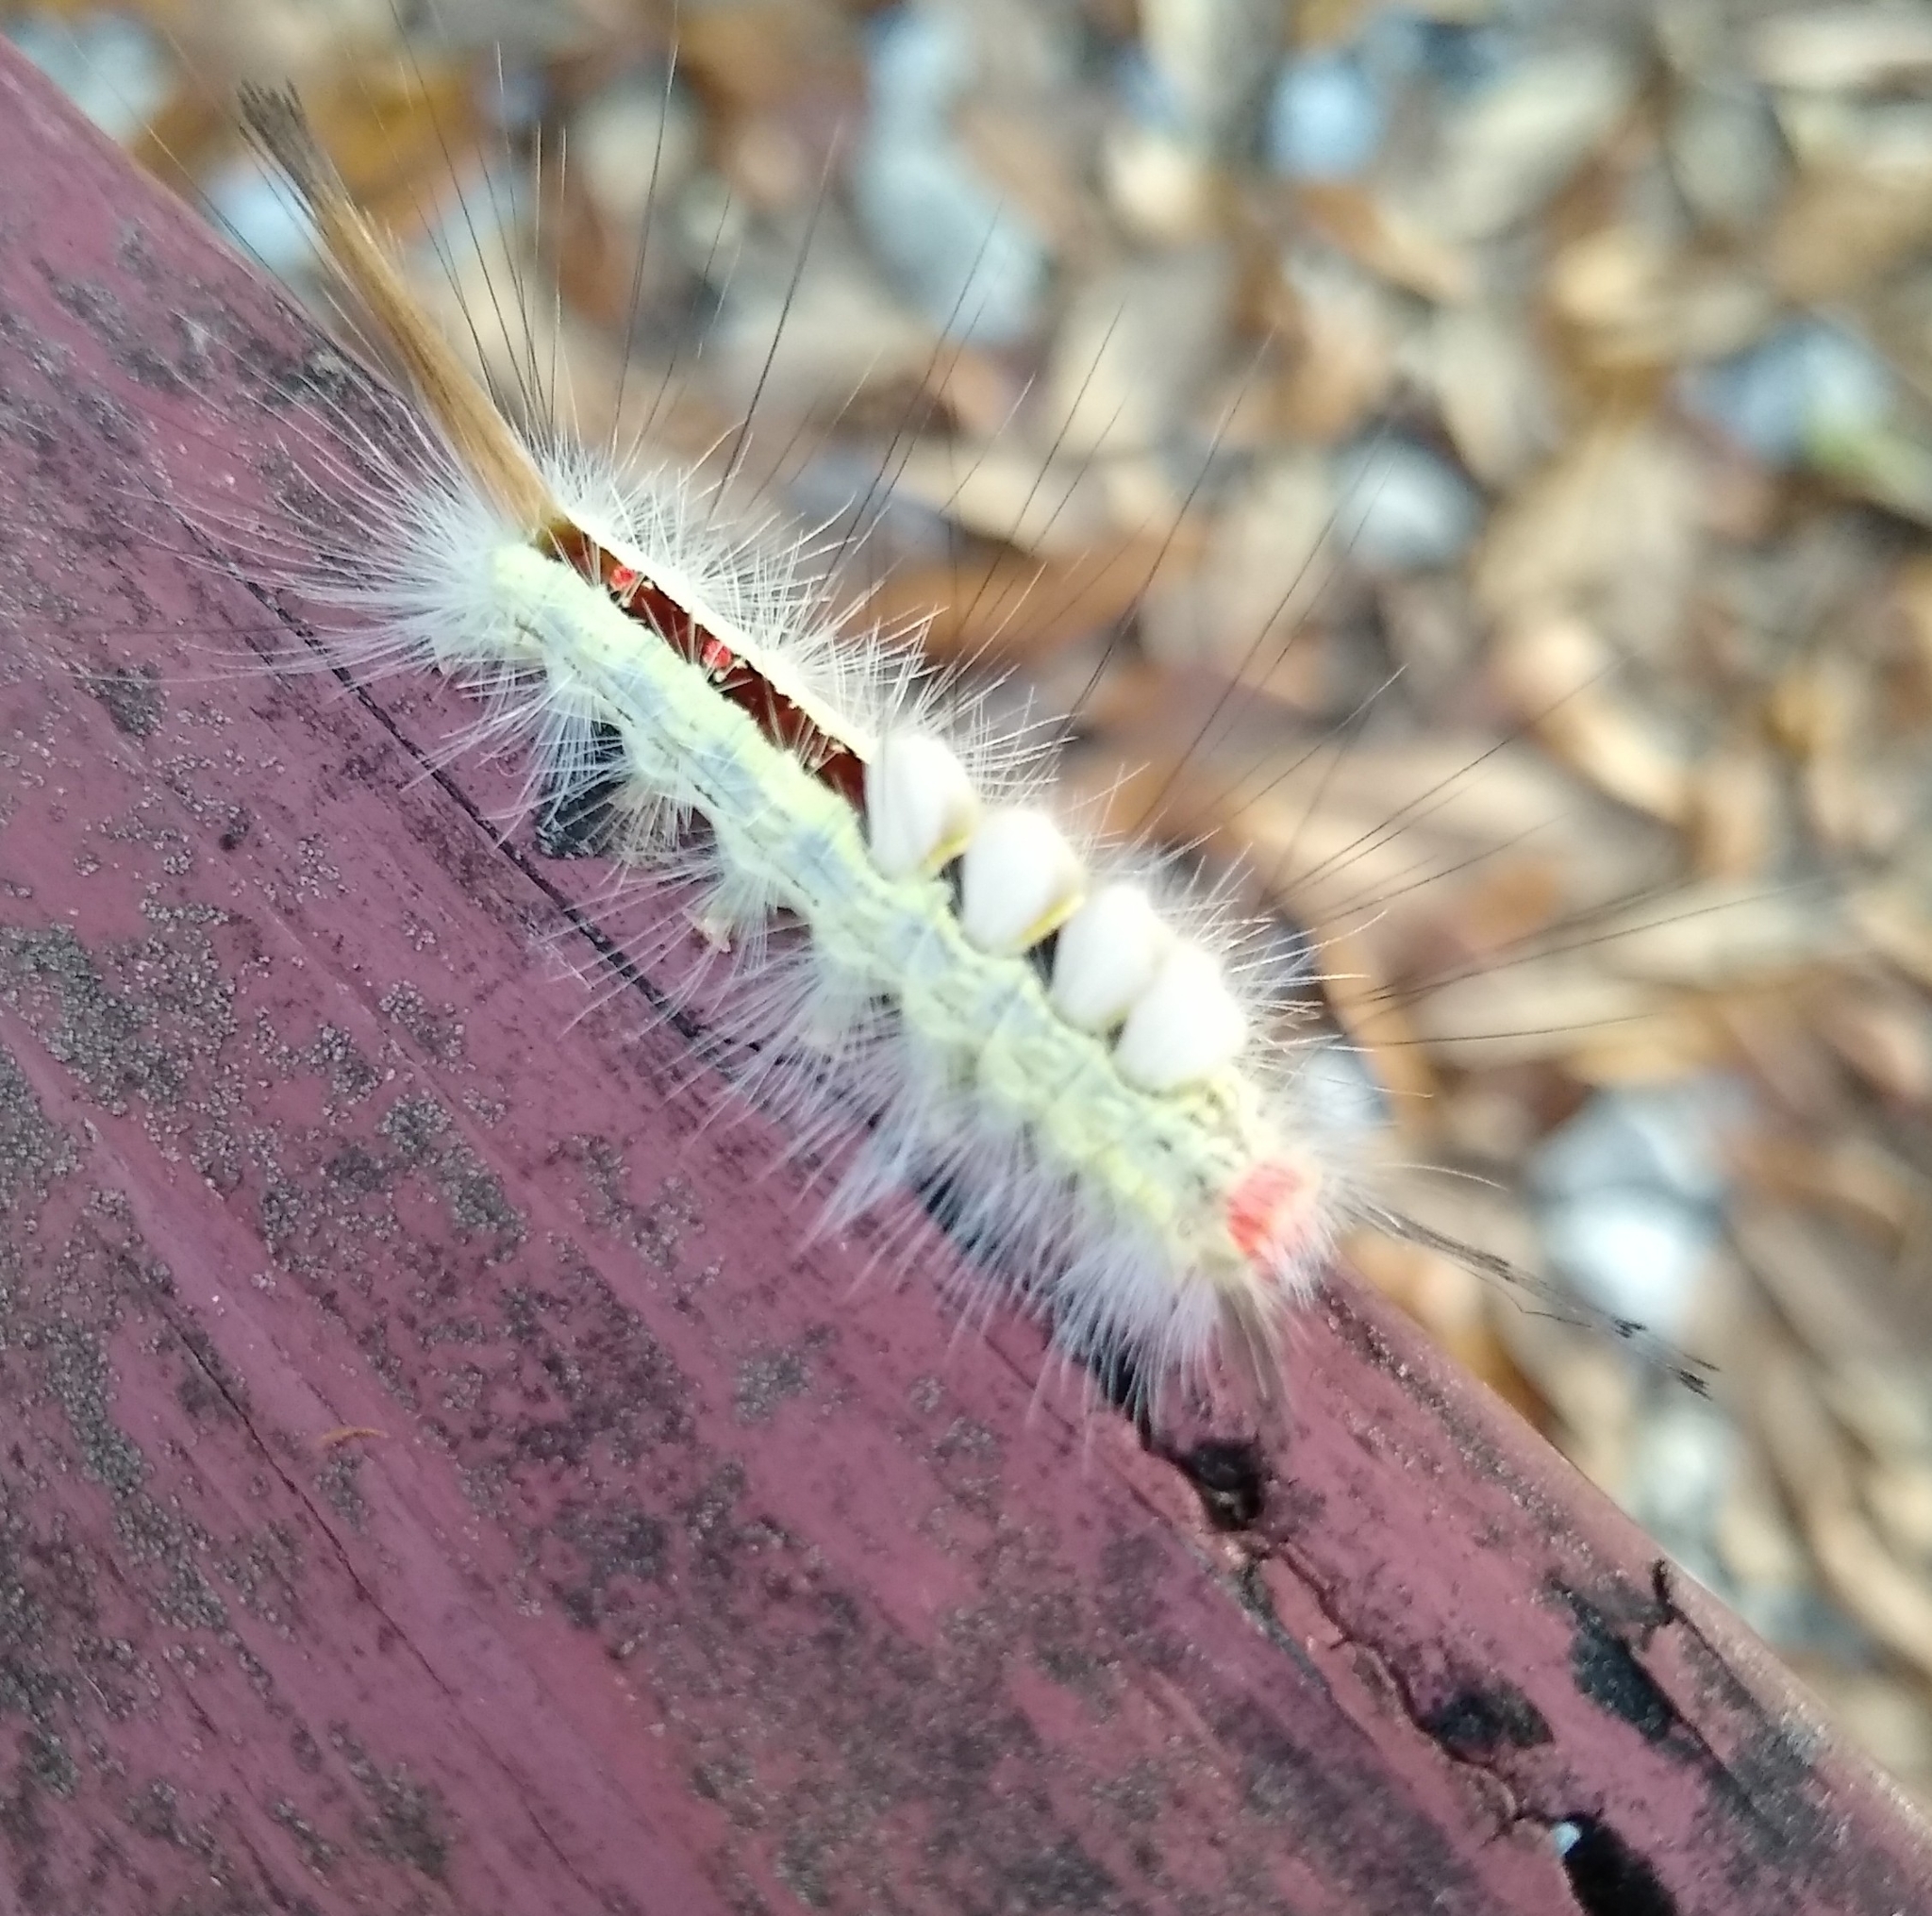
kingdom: Animalia
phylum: Arthropoda
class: Insecta
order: Lepidoptera
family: Erebidae
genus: Orgyia
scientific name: Orgyia leucostigma
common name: White-marked tussock moth
